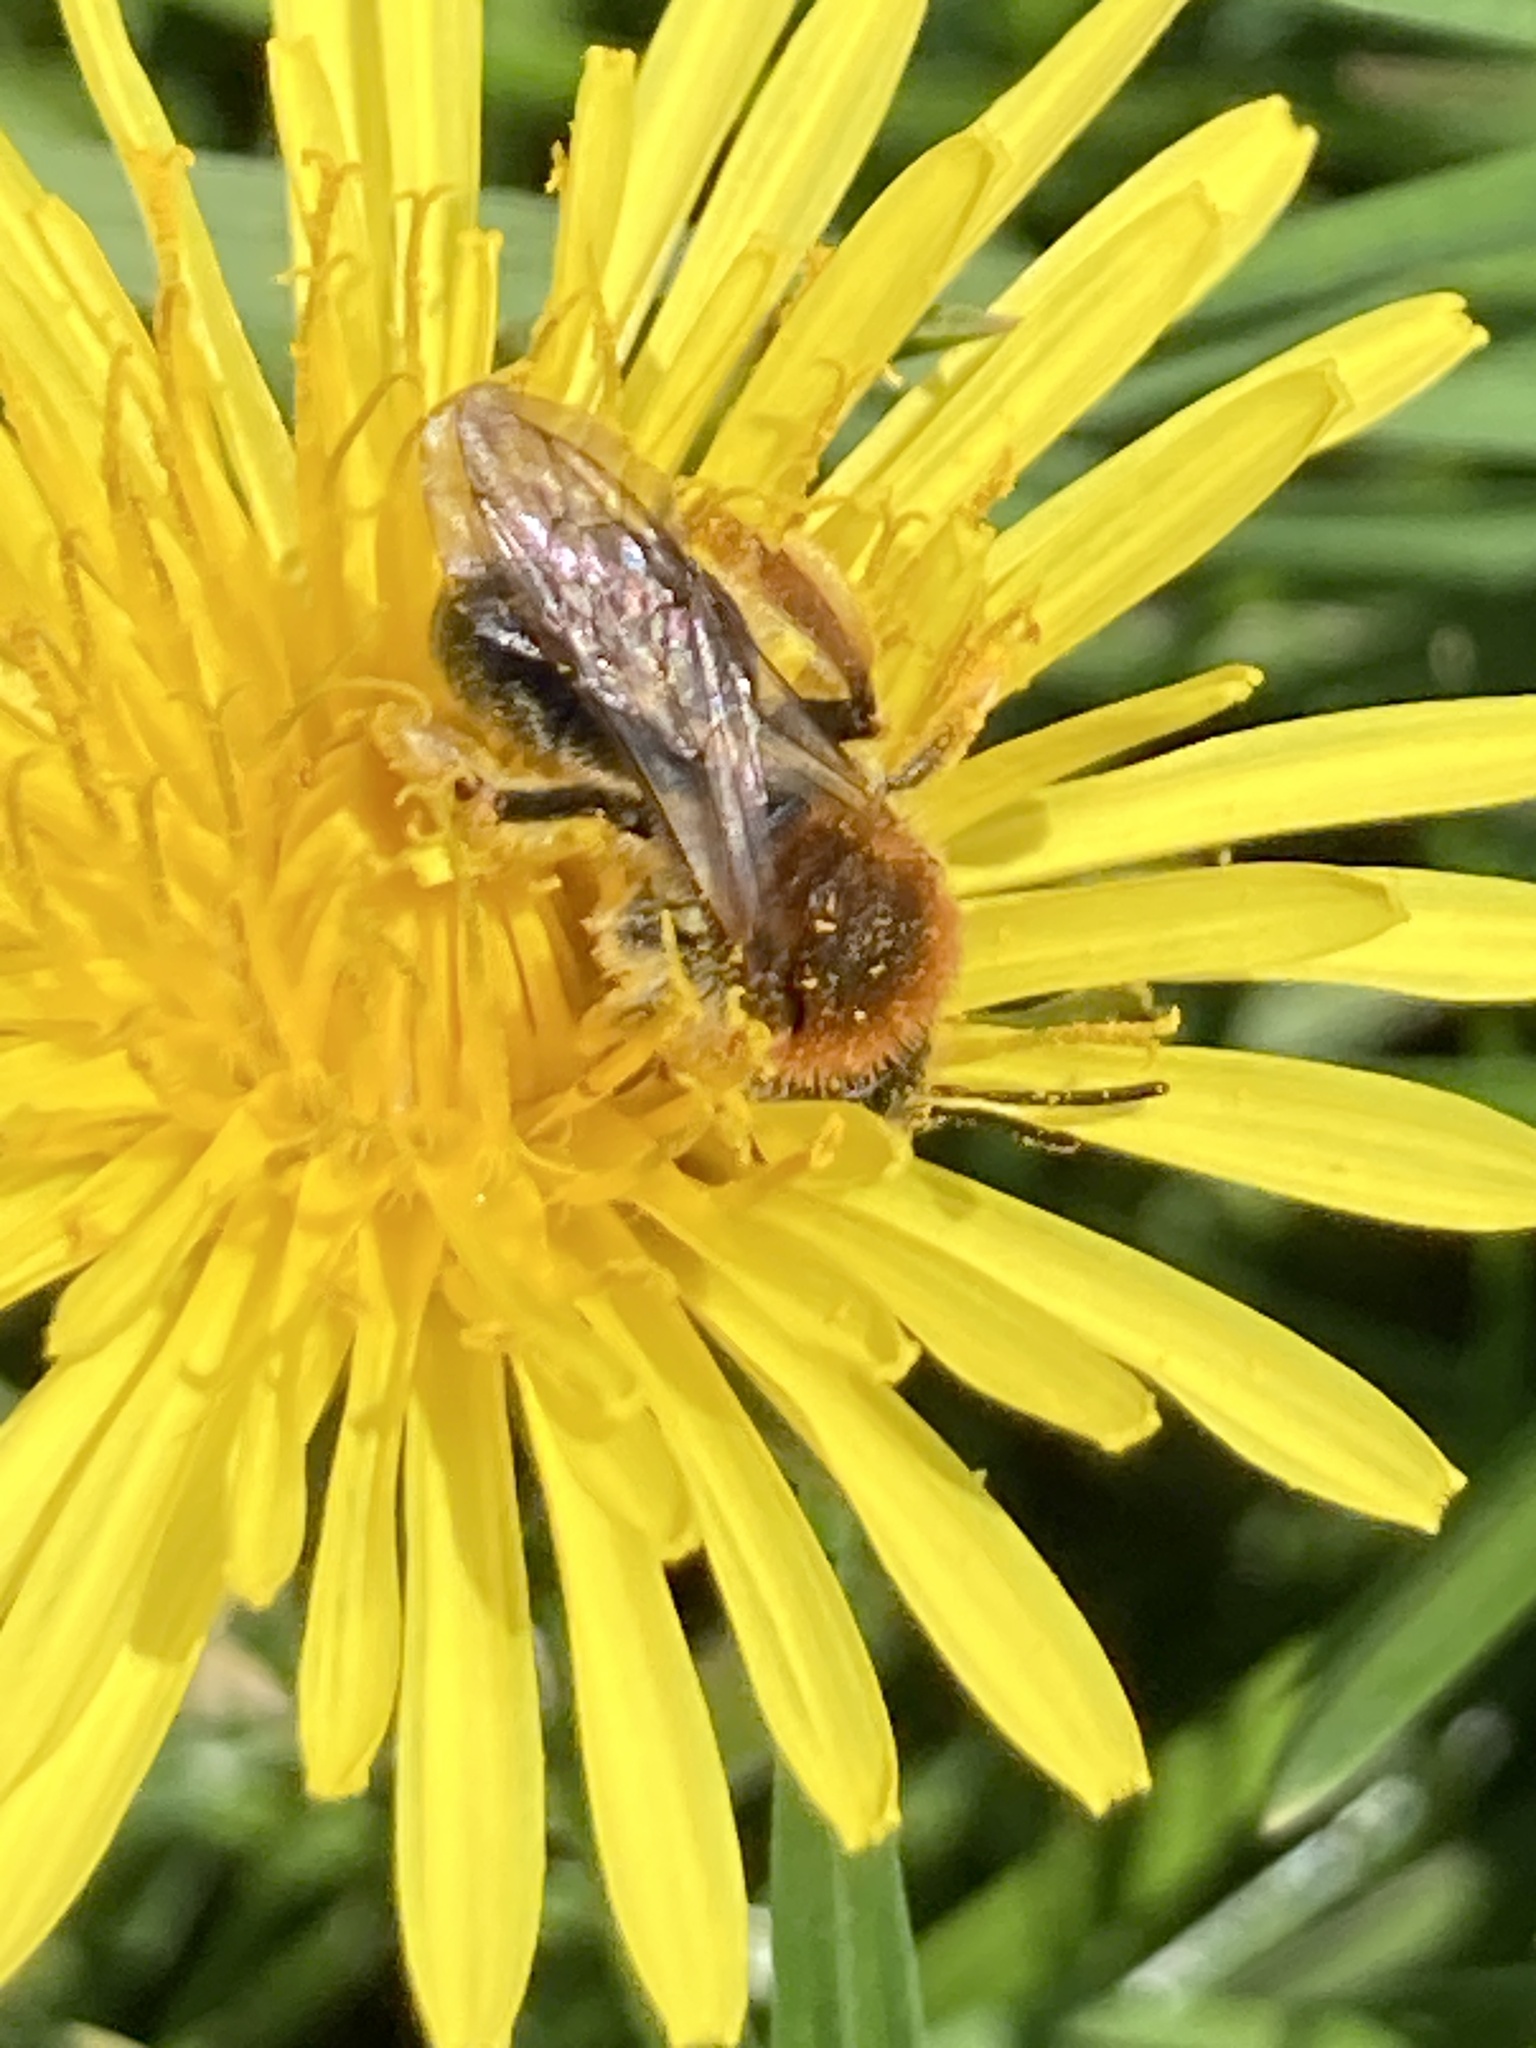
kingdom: Animalia
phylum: Arthropoda
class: Insecta
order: Hymenoptera
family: Andrenidae
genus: Andrena
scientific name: Andrena haemorrhoa
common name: Early mining bee
